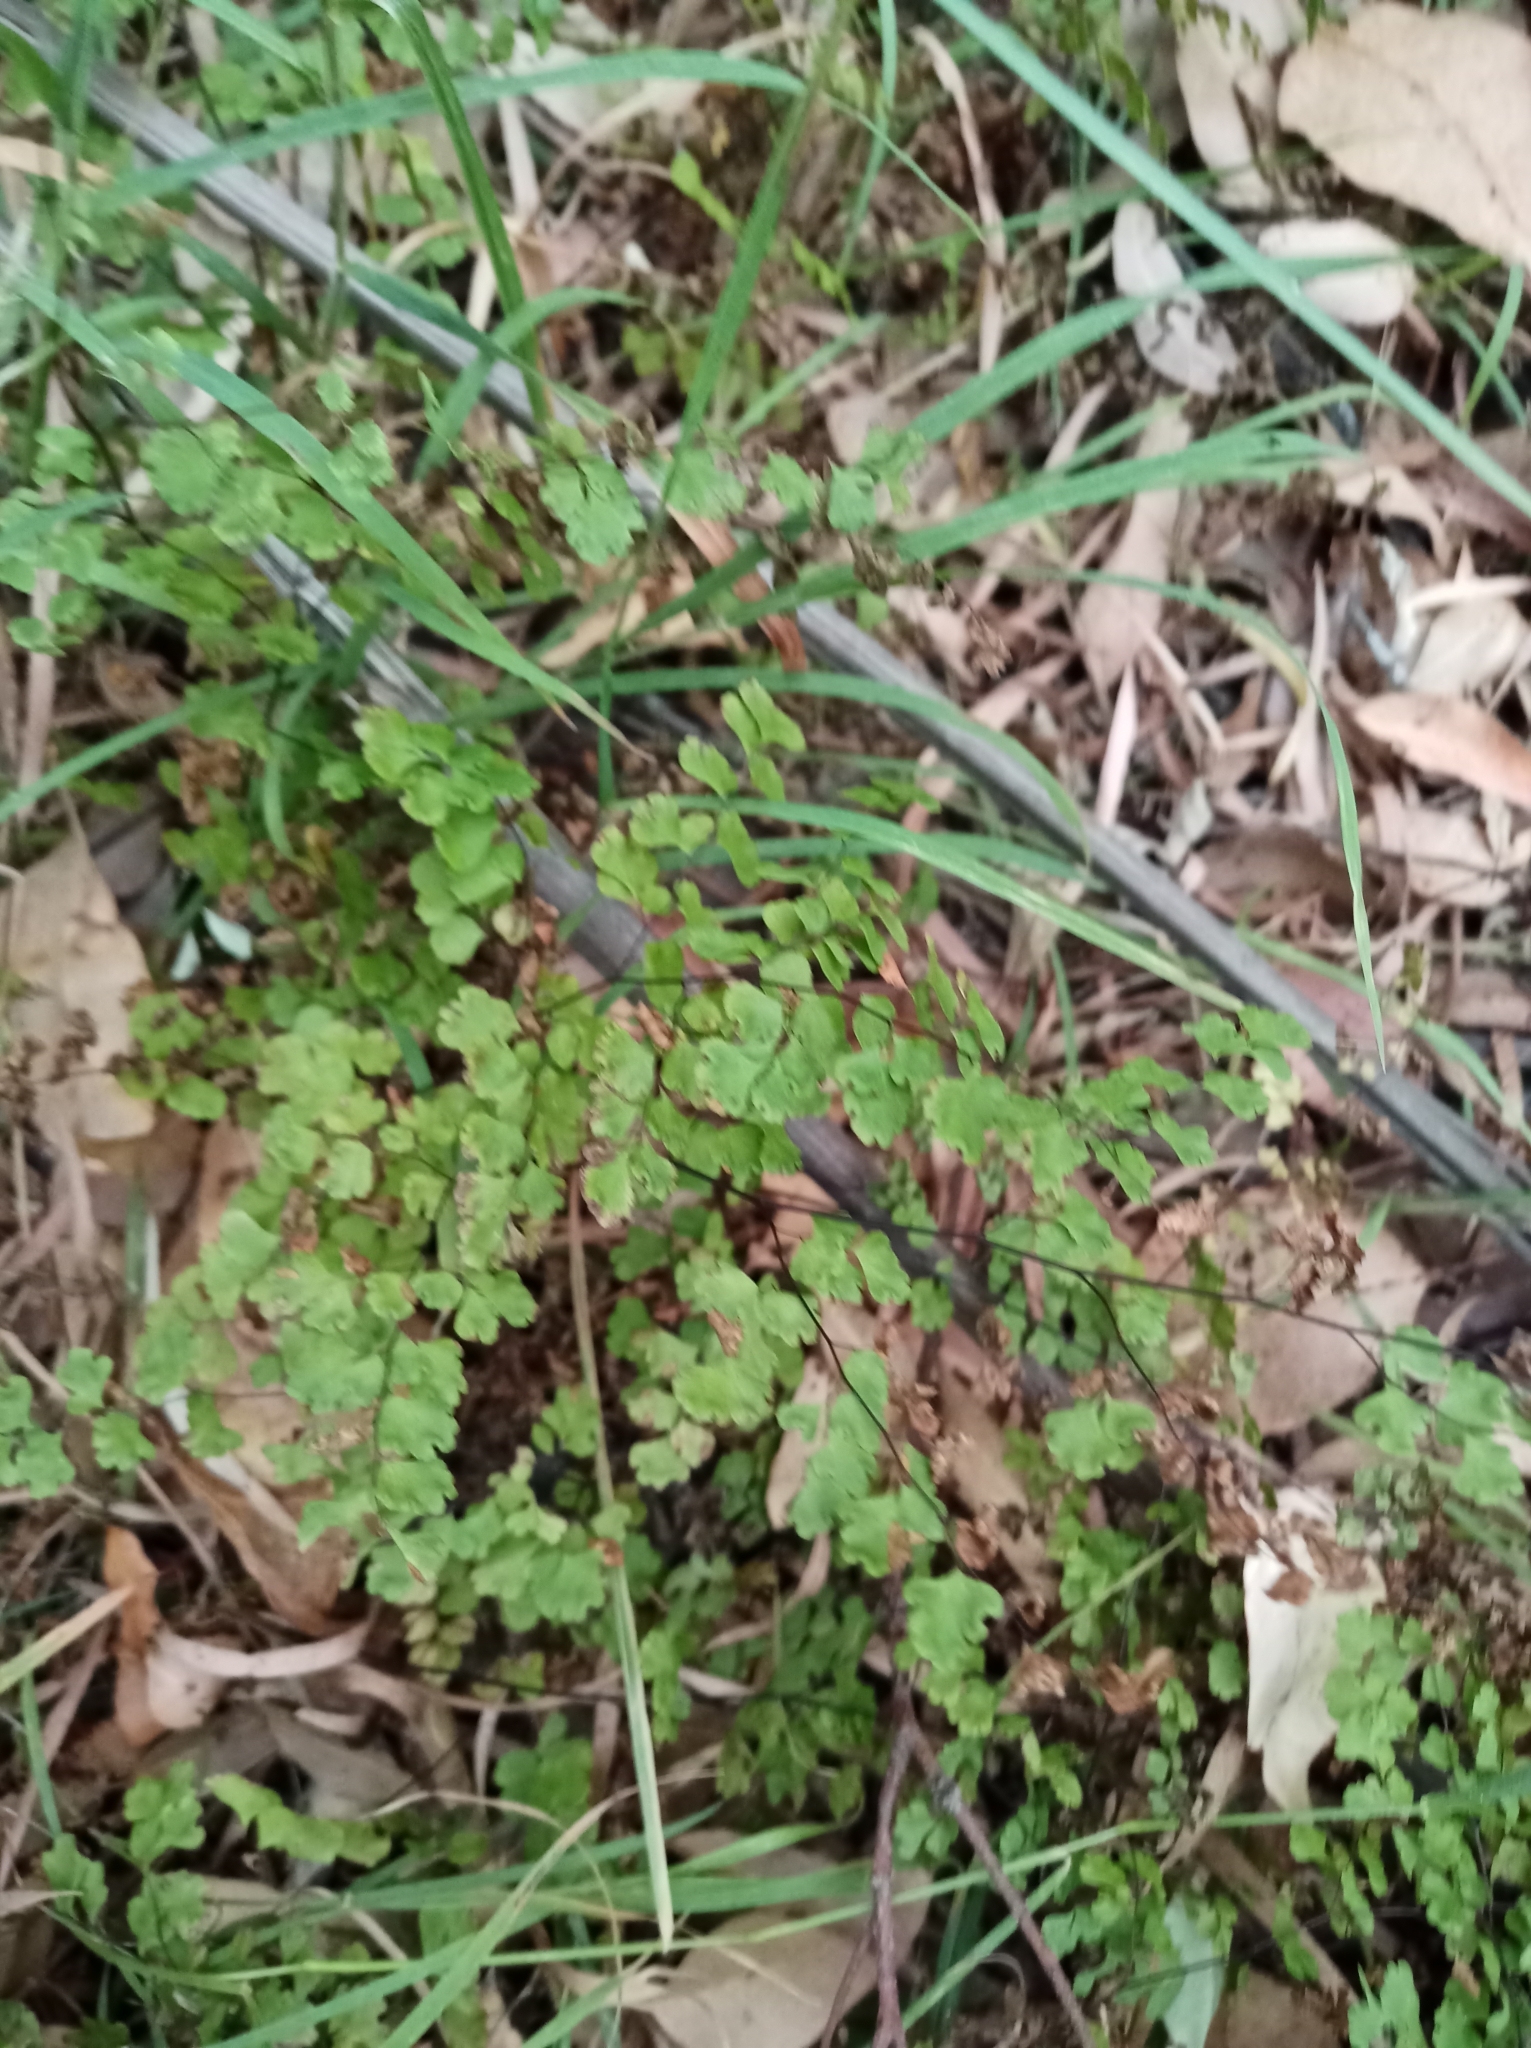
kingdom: Plantae
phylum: Tracheophyta
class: Polypodiopsida
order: Polypodiales
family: Pteridaceae
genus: Adiantum
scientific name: Adiantum aethiopicum
